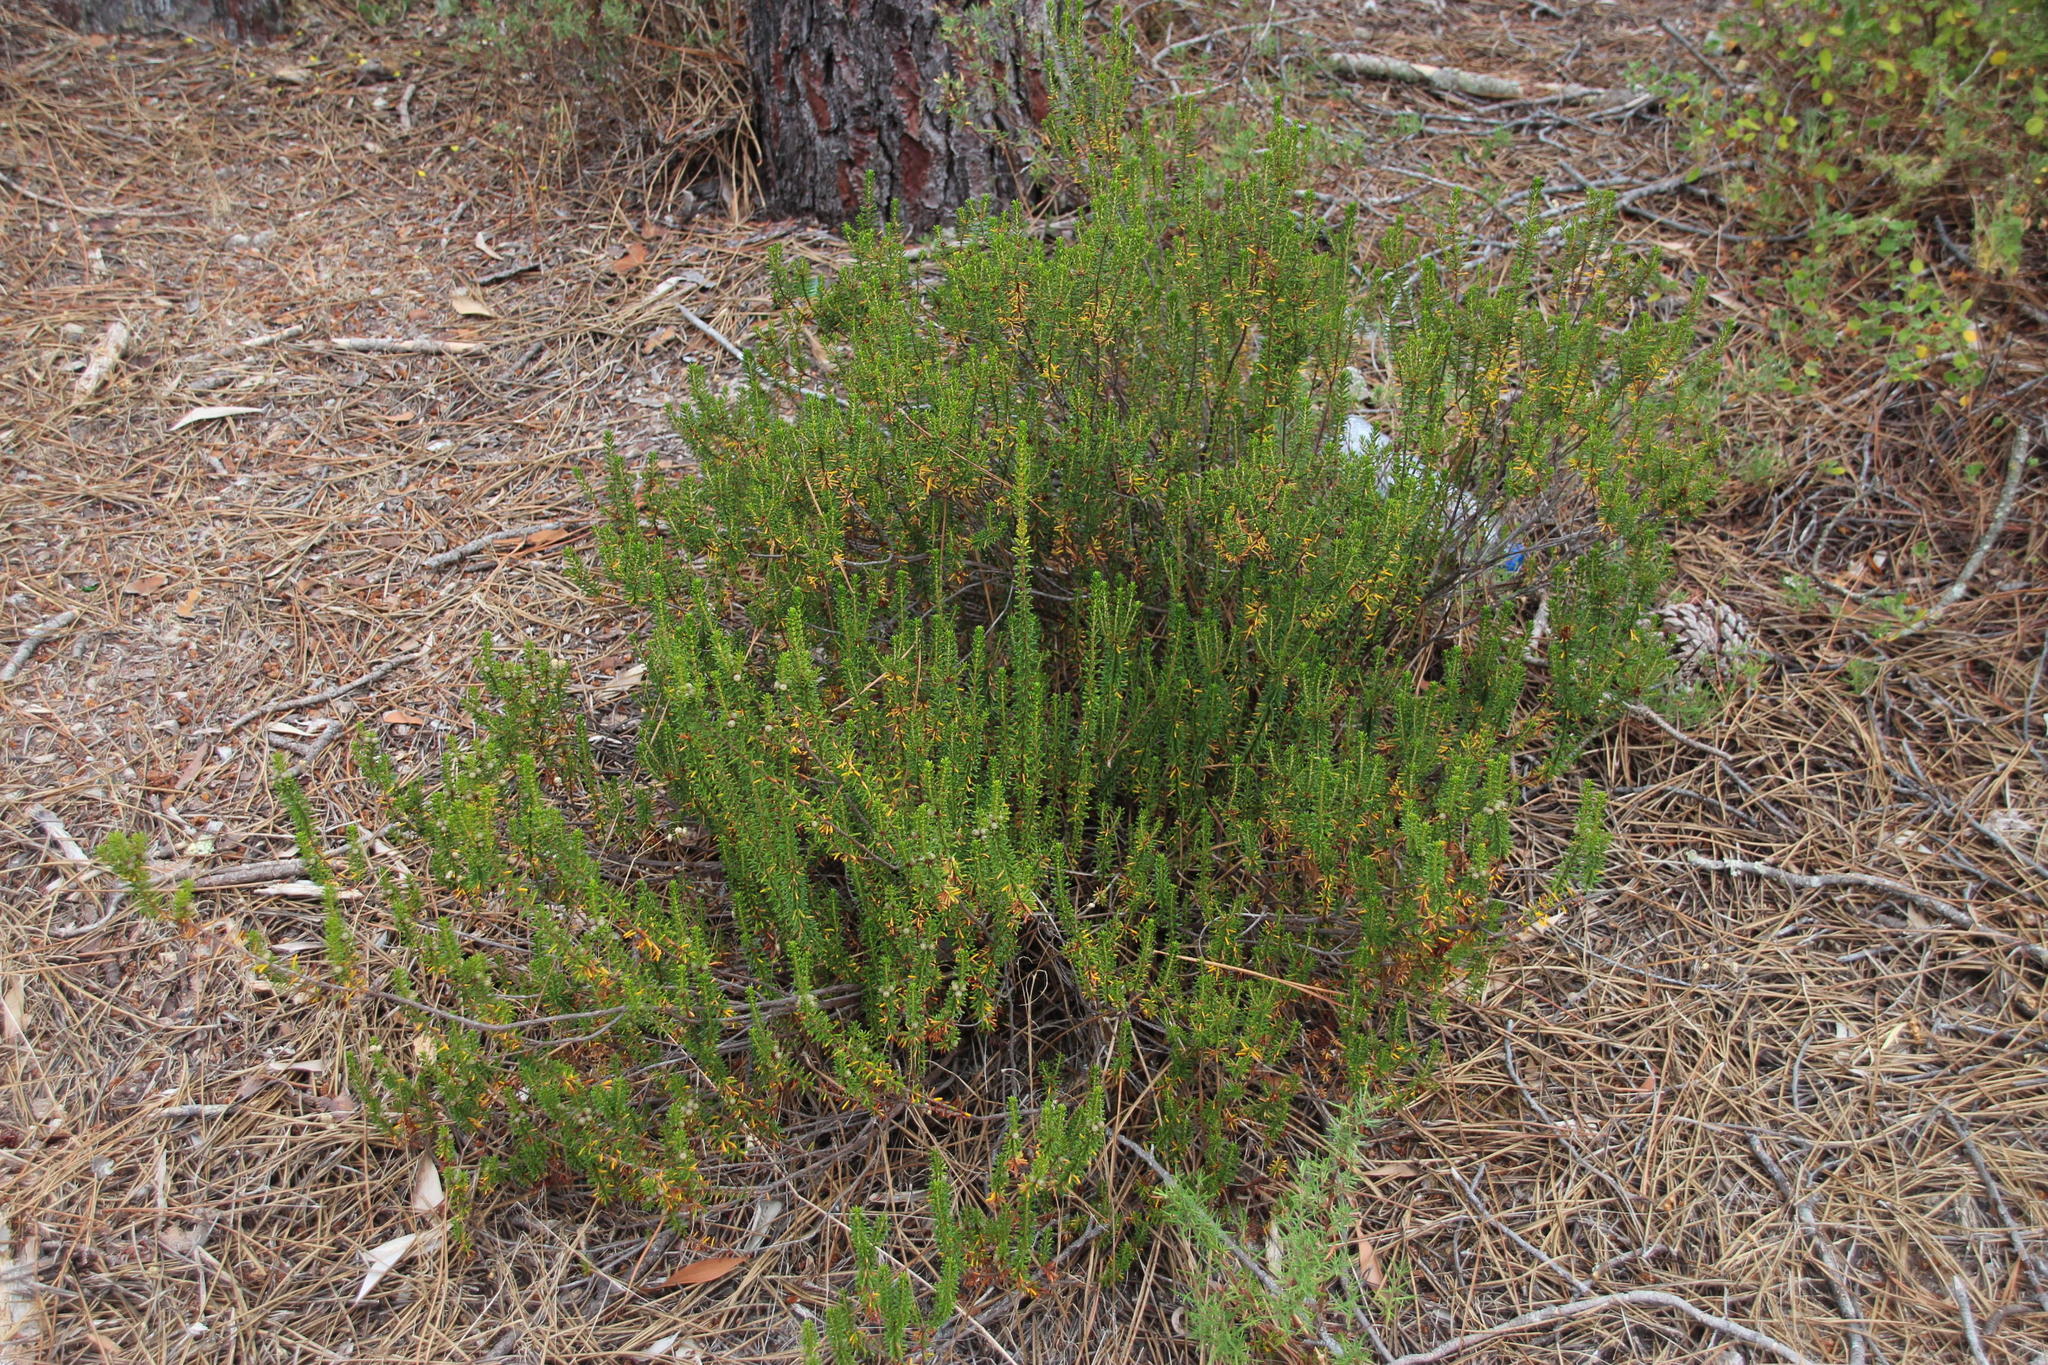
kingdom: Plantae
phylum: Tracheophyta
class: Magnoliopsida
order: Ericales
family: Ericaceae
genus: Corema
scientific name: Corema album
